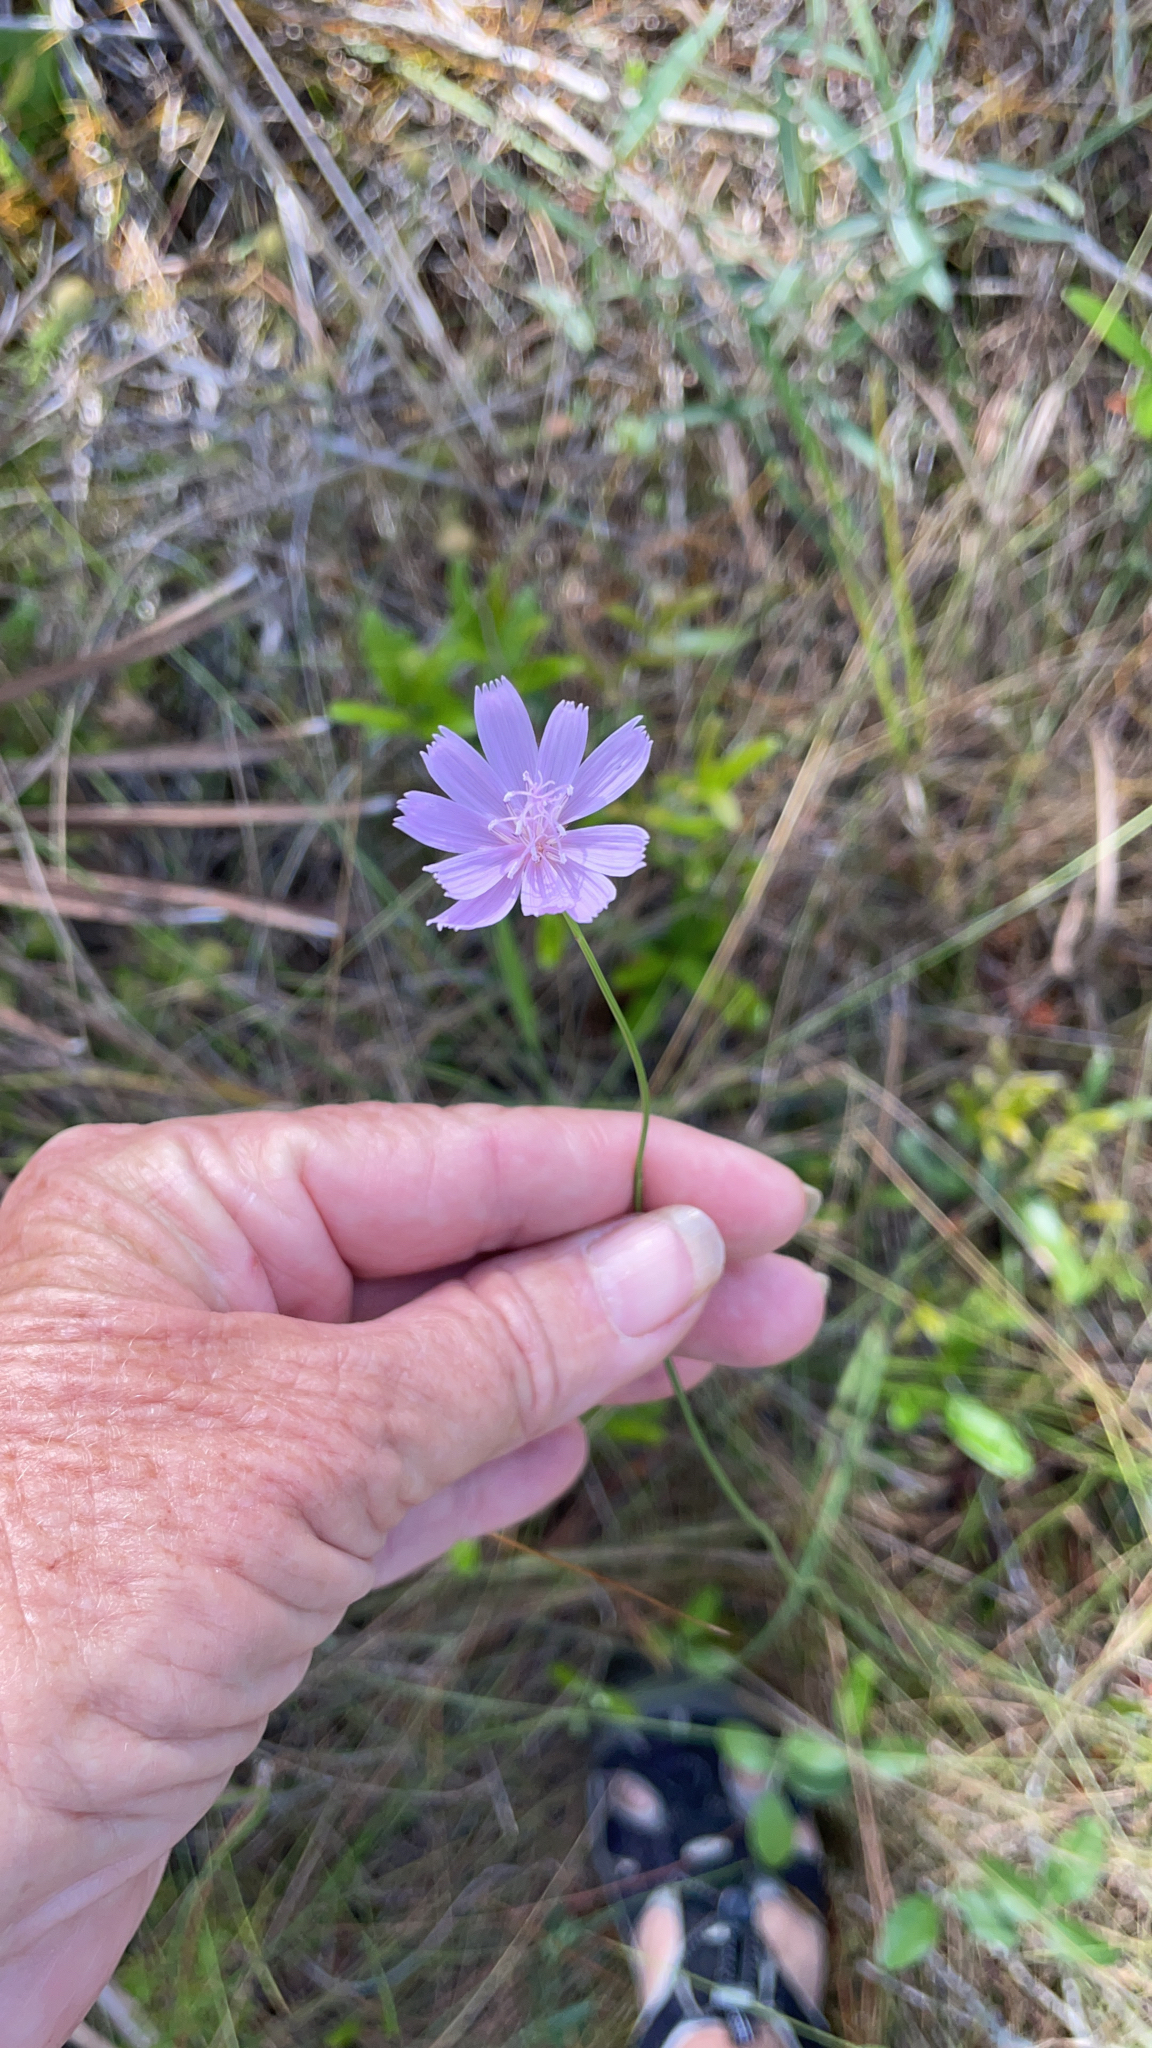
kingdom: Plantae
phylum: Tracheophyta
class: Magnoliopsida
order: Asterales
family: Asteraceae
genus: Lygodesmia
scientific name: Lygodesmia aphylla
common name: Rose-rush
